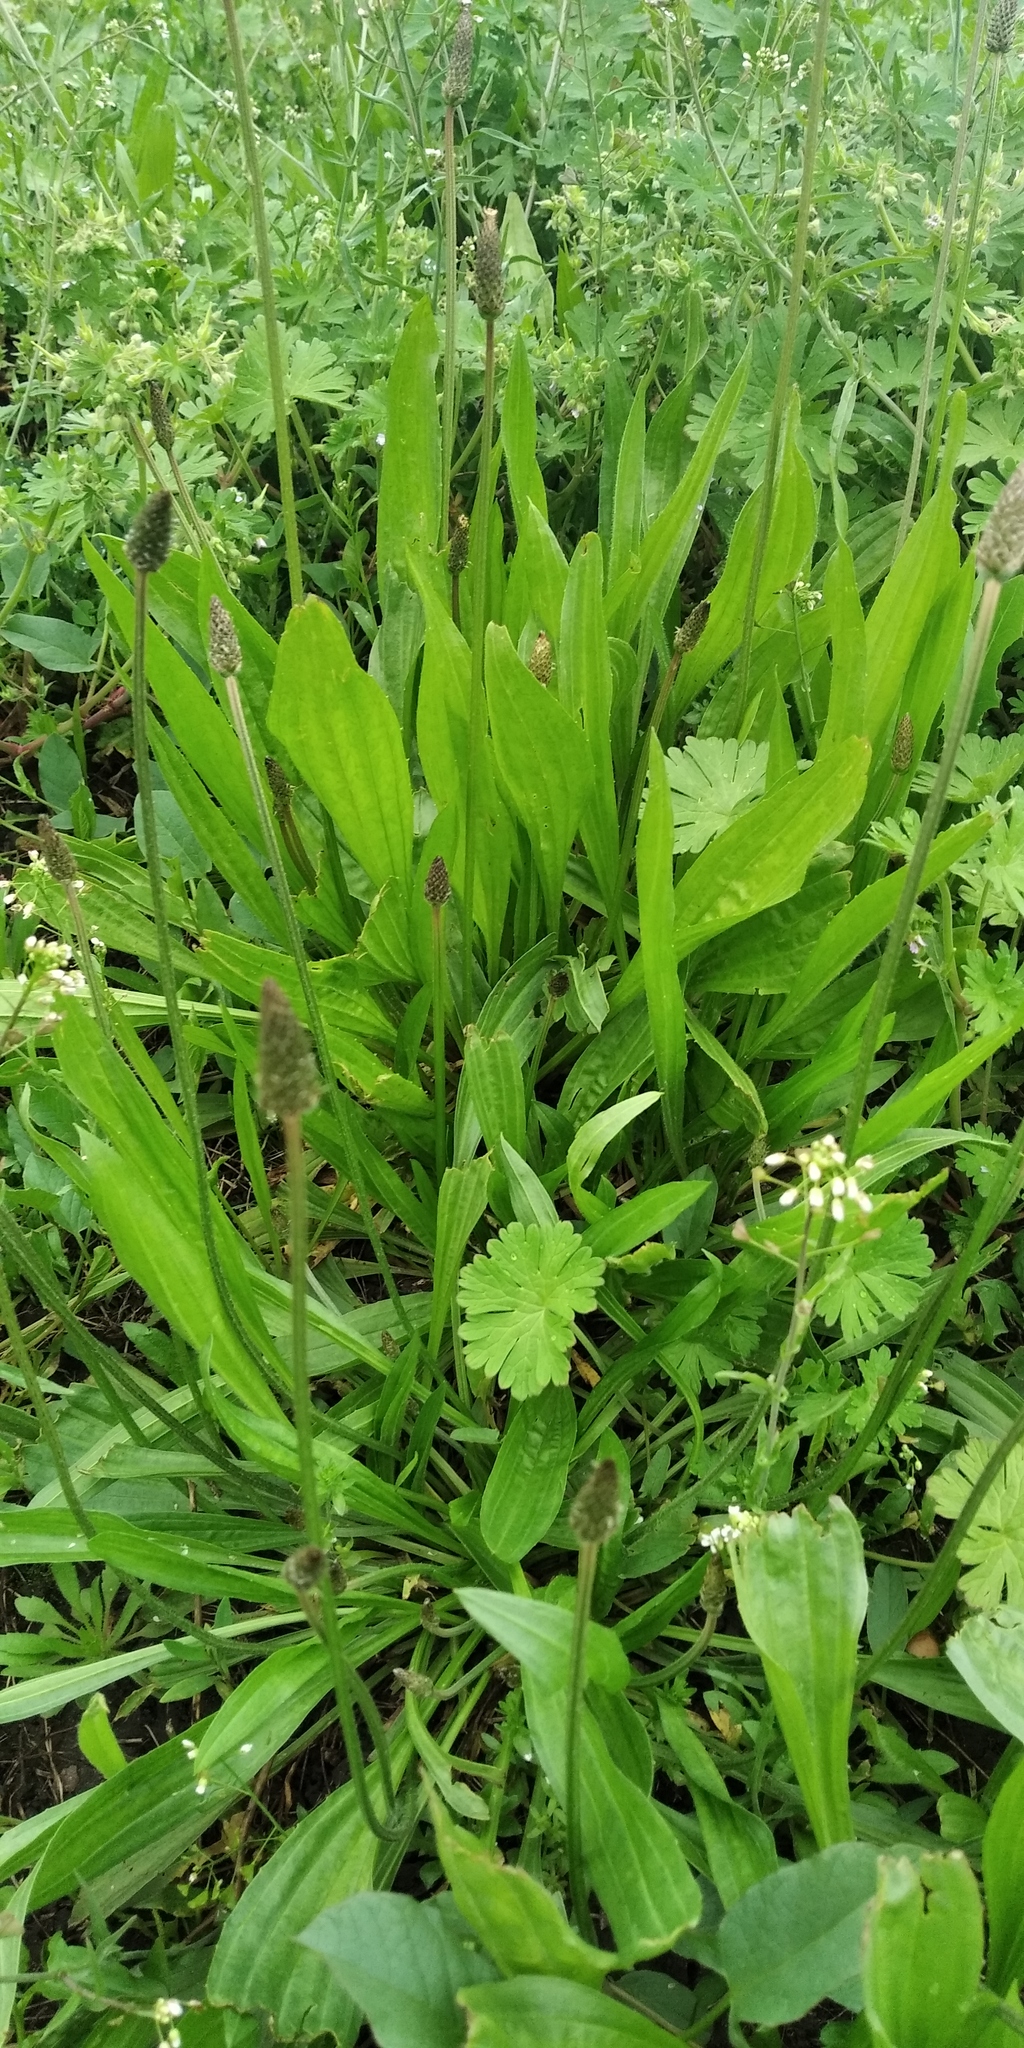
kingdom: Plantae
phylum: Tracheophyta
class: Magnoliopsida
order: Lamiales
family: Plantaginaceae
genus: Plantago
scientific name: Plantago lanceolata
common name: Ribwort plantain
